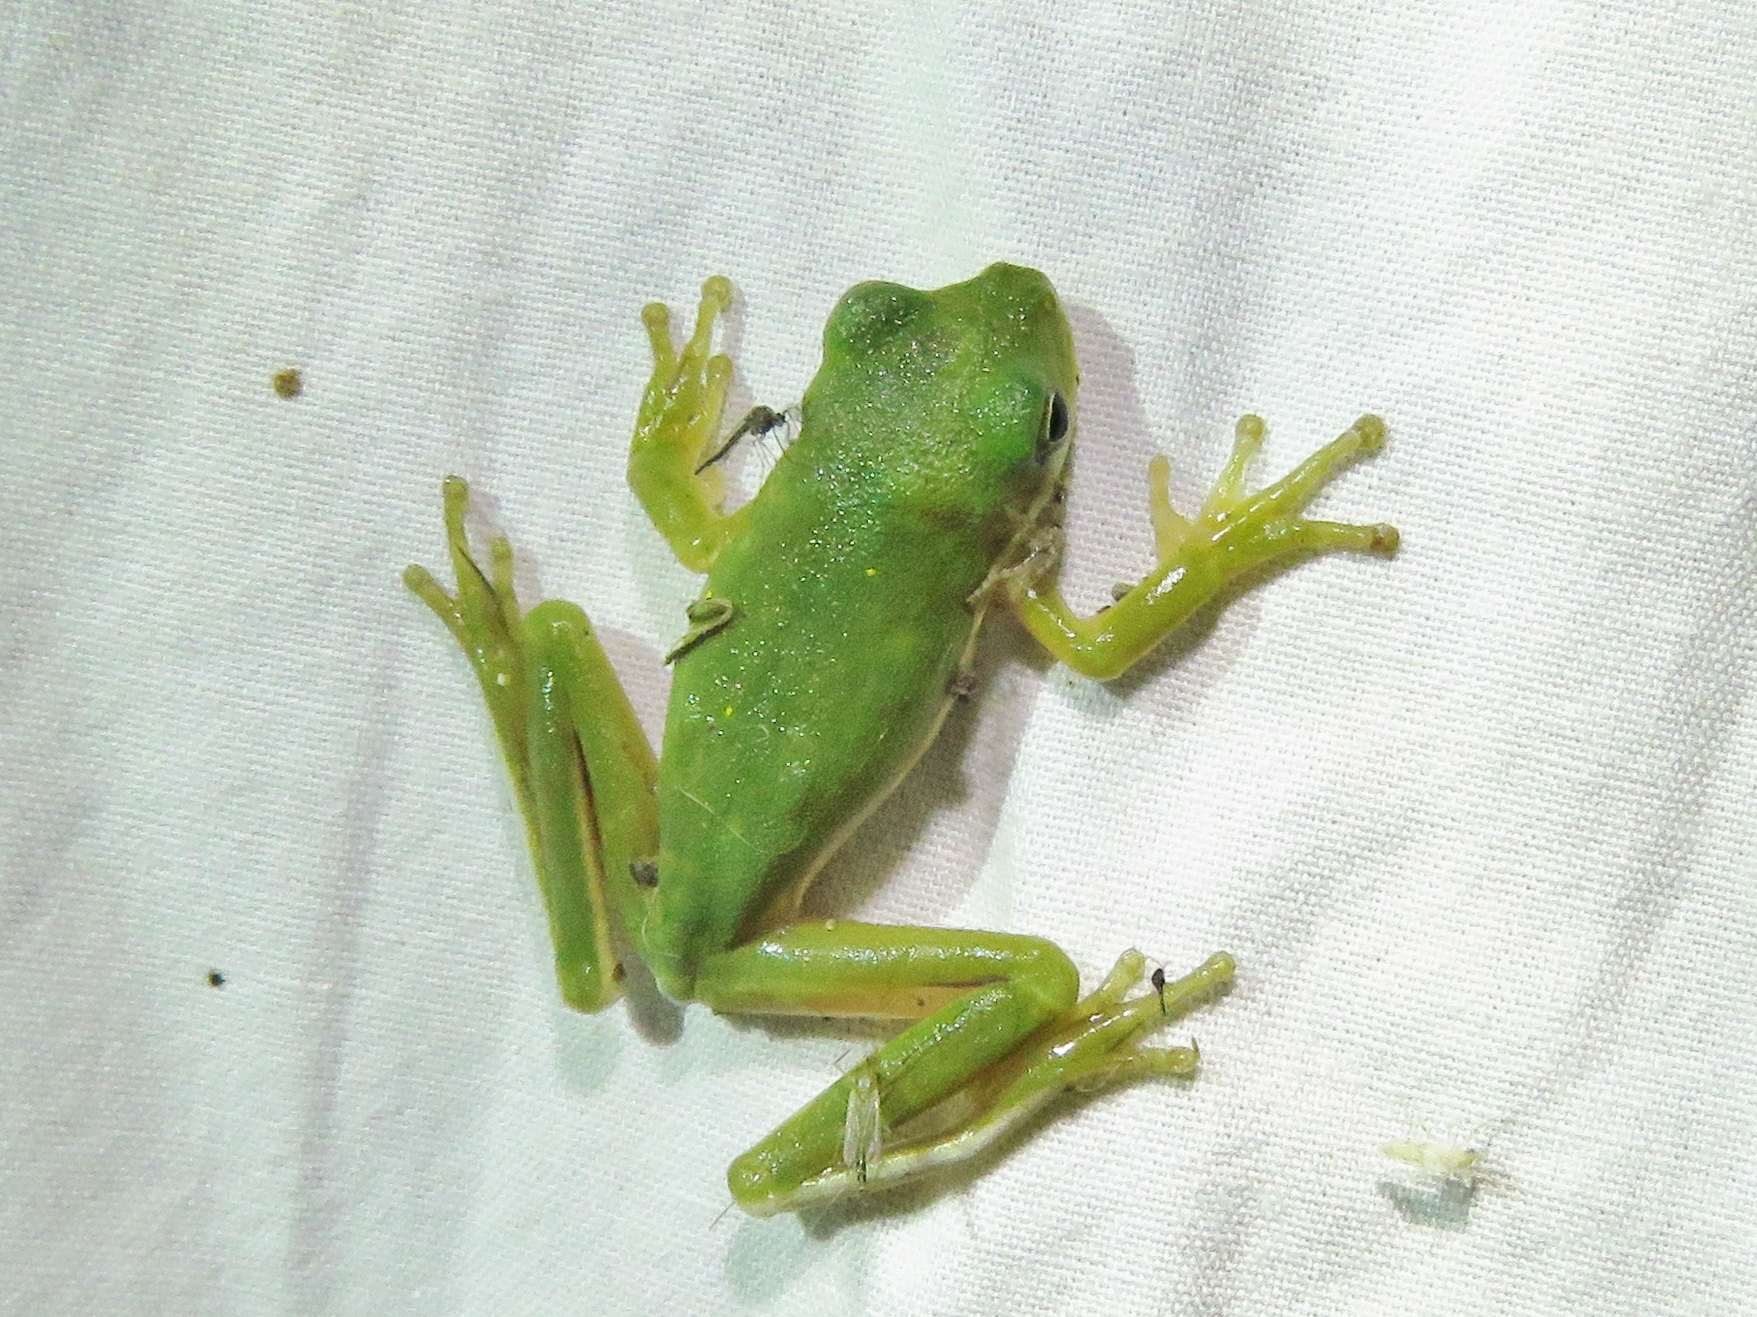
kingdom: Animalia
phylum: Chordata
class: Amphibia
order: Anura
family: Hylidae
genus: Dryophytes
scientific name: Dryophytes cinereus
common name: Green treefrog
